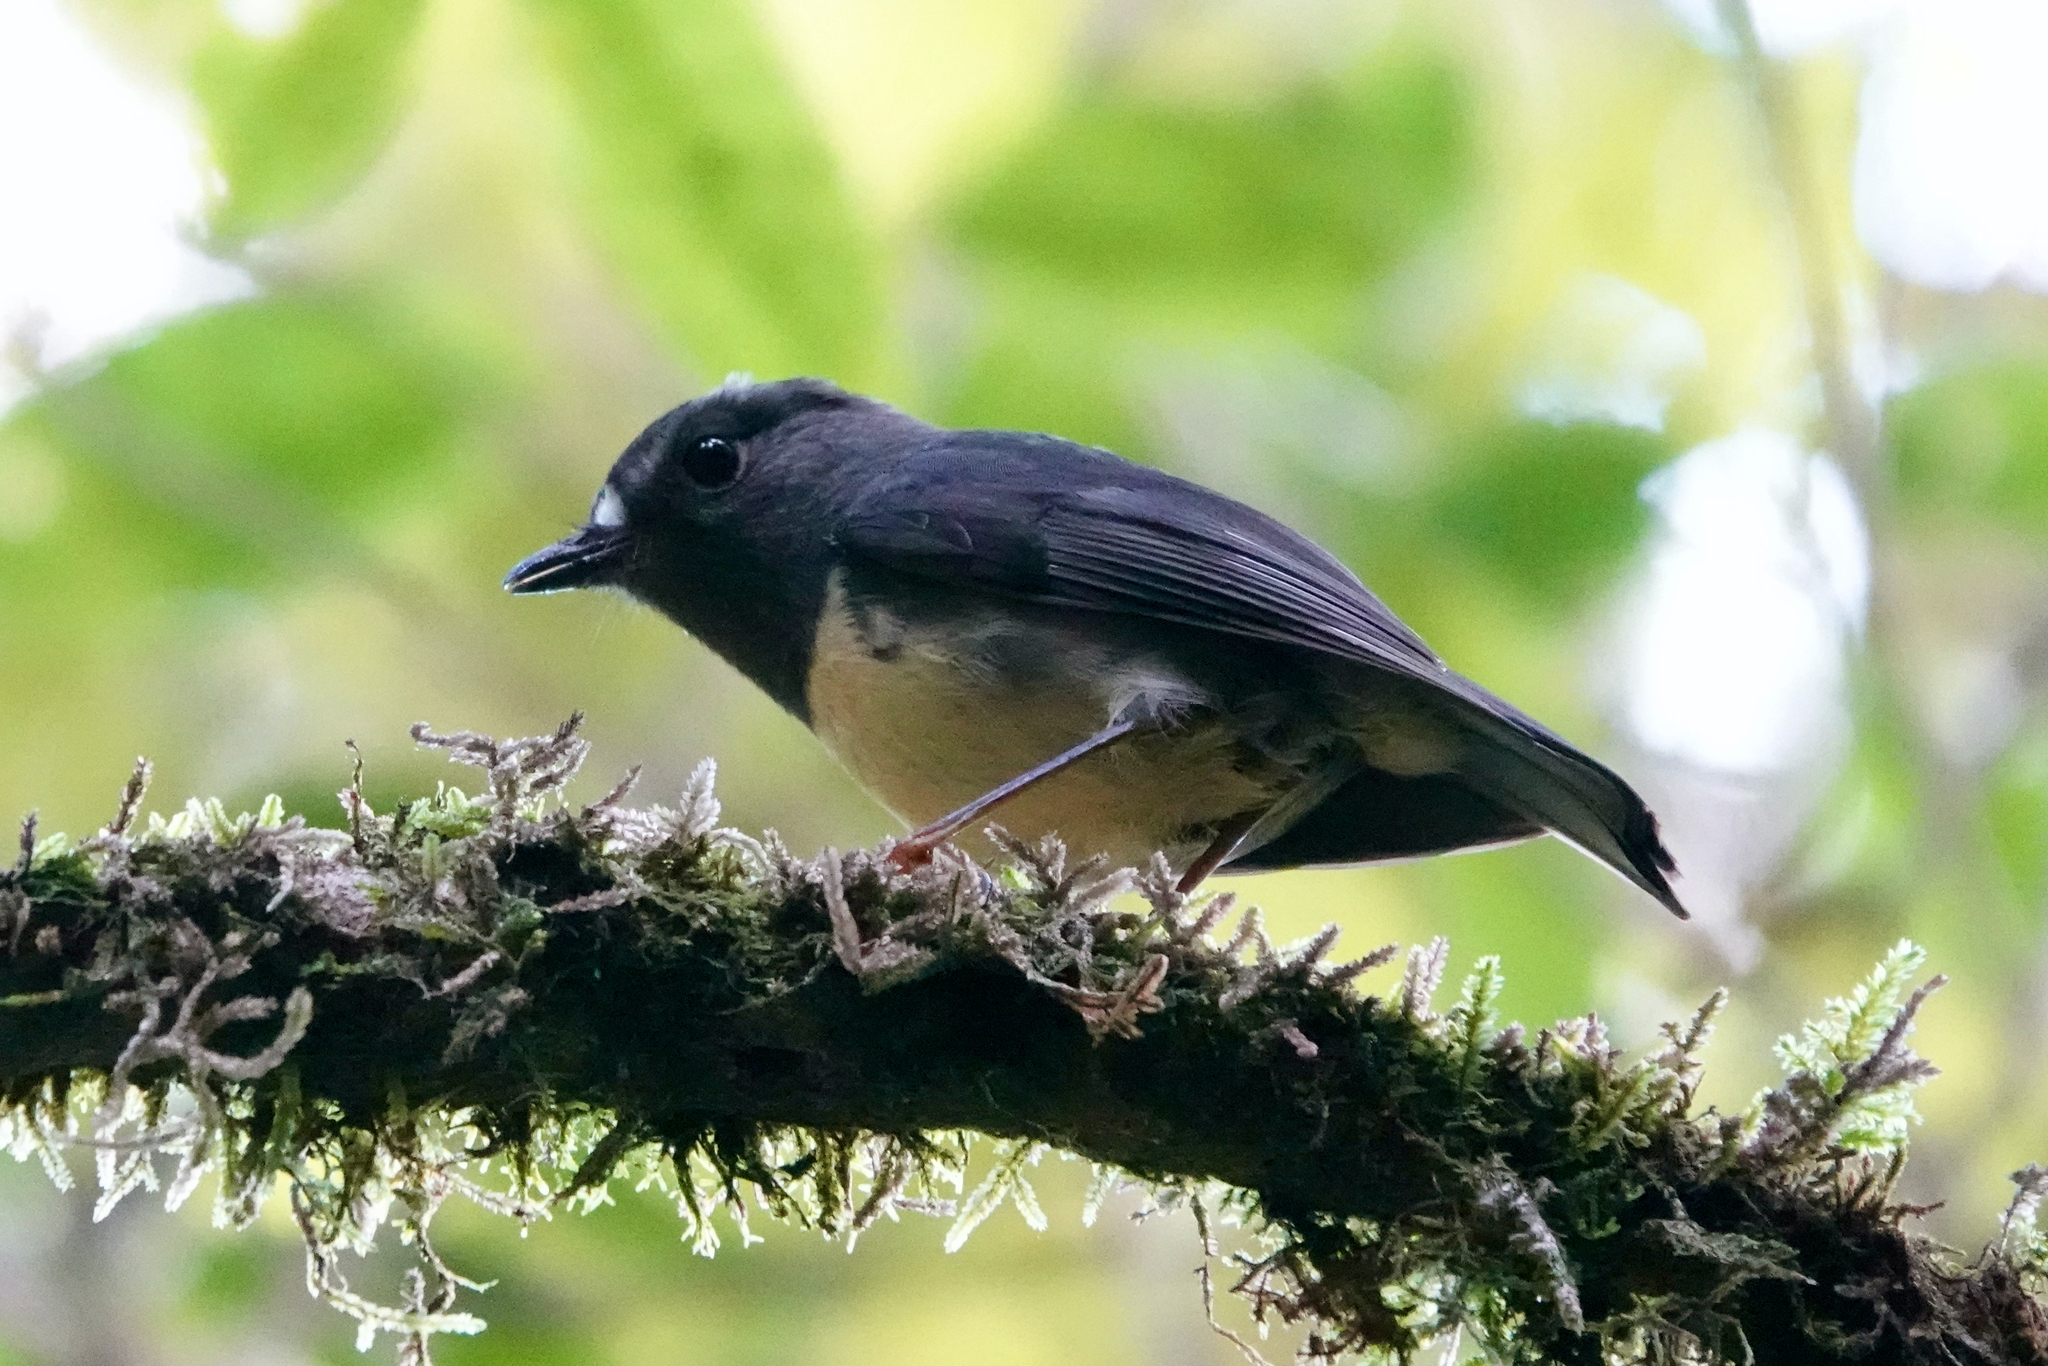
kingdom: Animalia
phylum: Chordata
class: Aves
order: Passeriformes
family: Petroicidae
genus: Petroica
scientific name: Petroica australis
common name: New zealand robin
